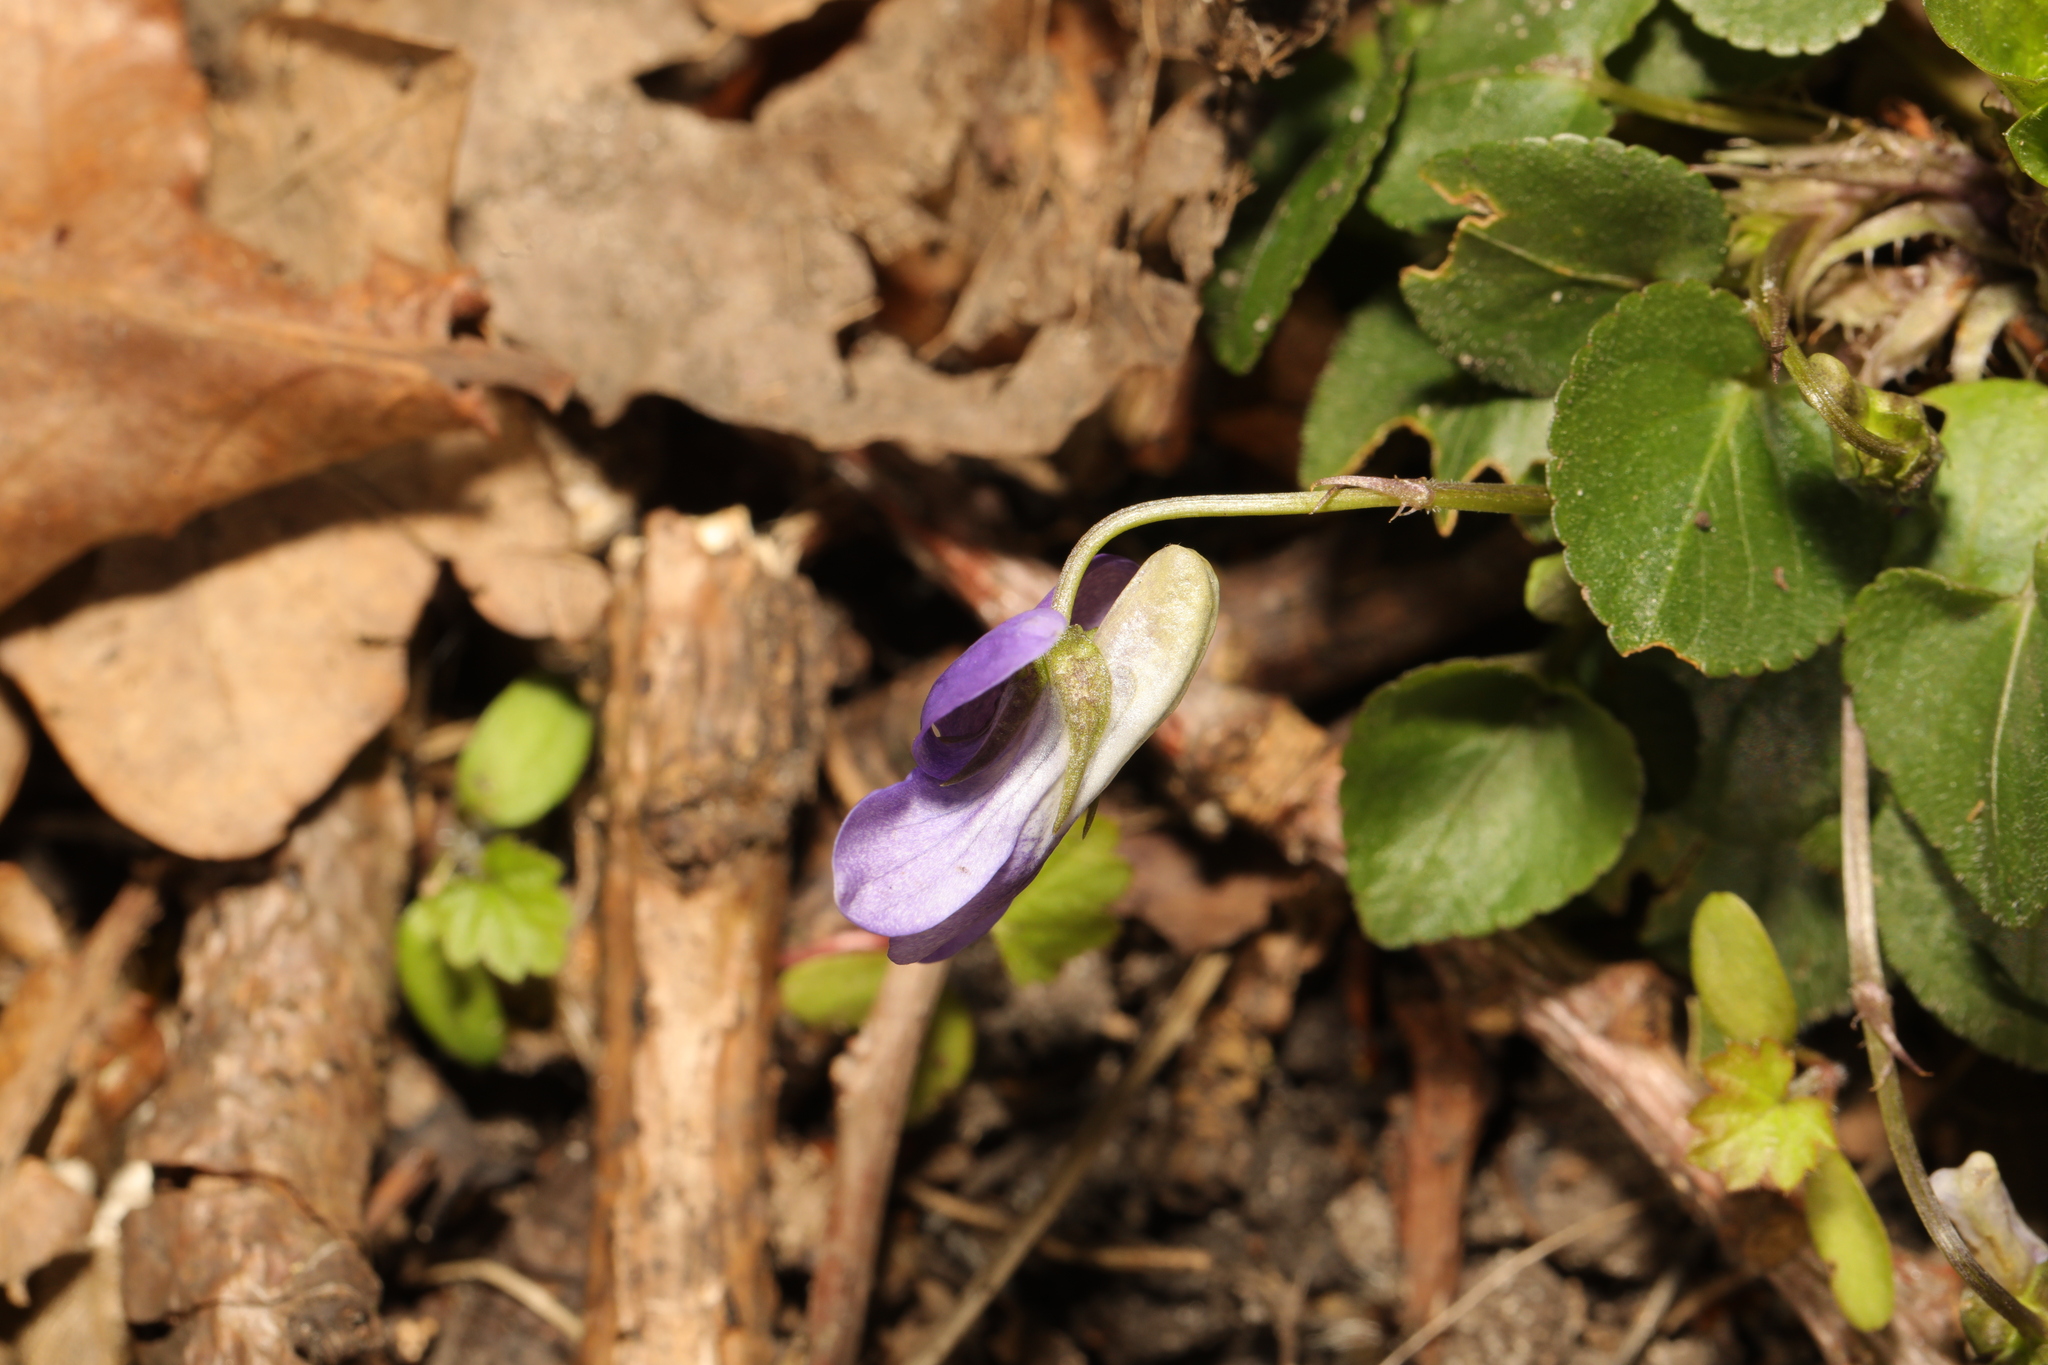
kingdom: Plantae
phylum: Tracheophyta
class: Magnoliopsida
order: Malpighiales
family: Violaceae
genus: Viola
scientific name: Viola riviniana
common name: Common dog-violet
